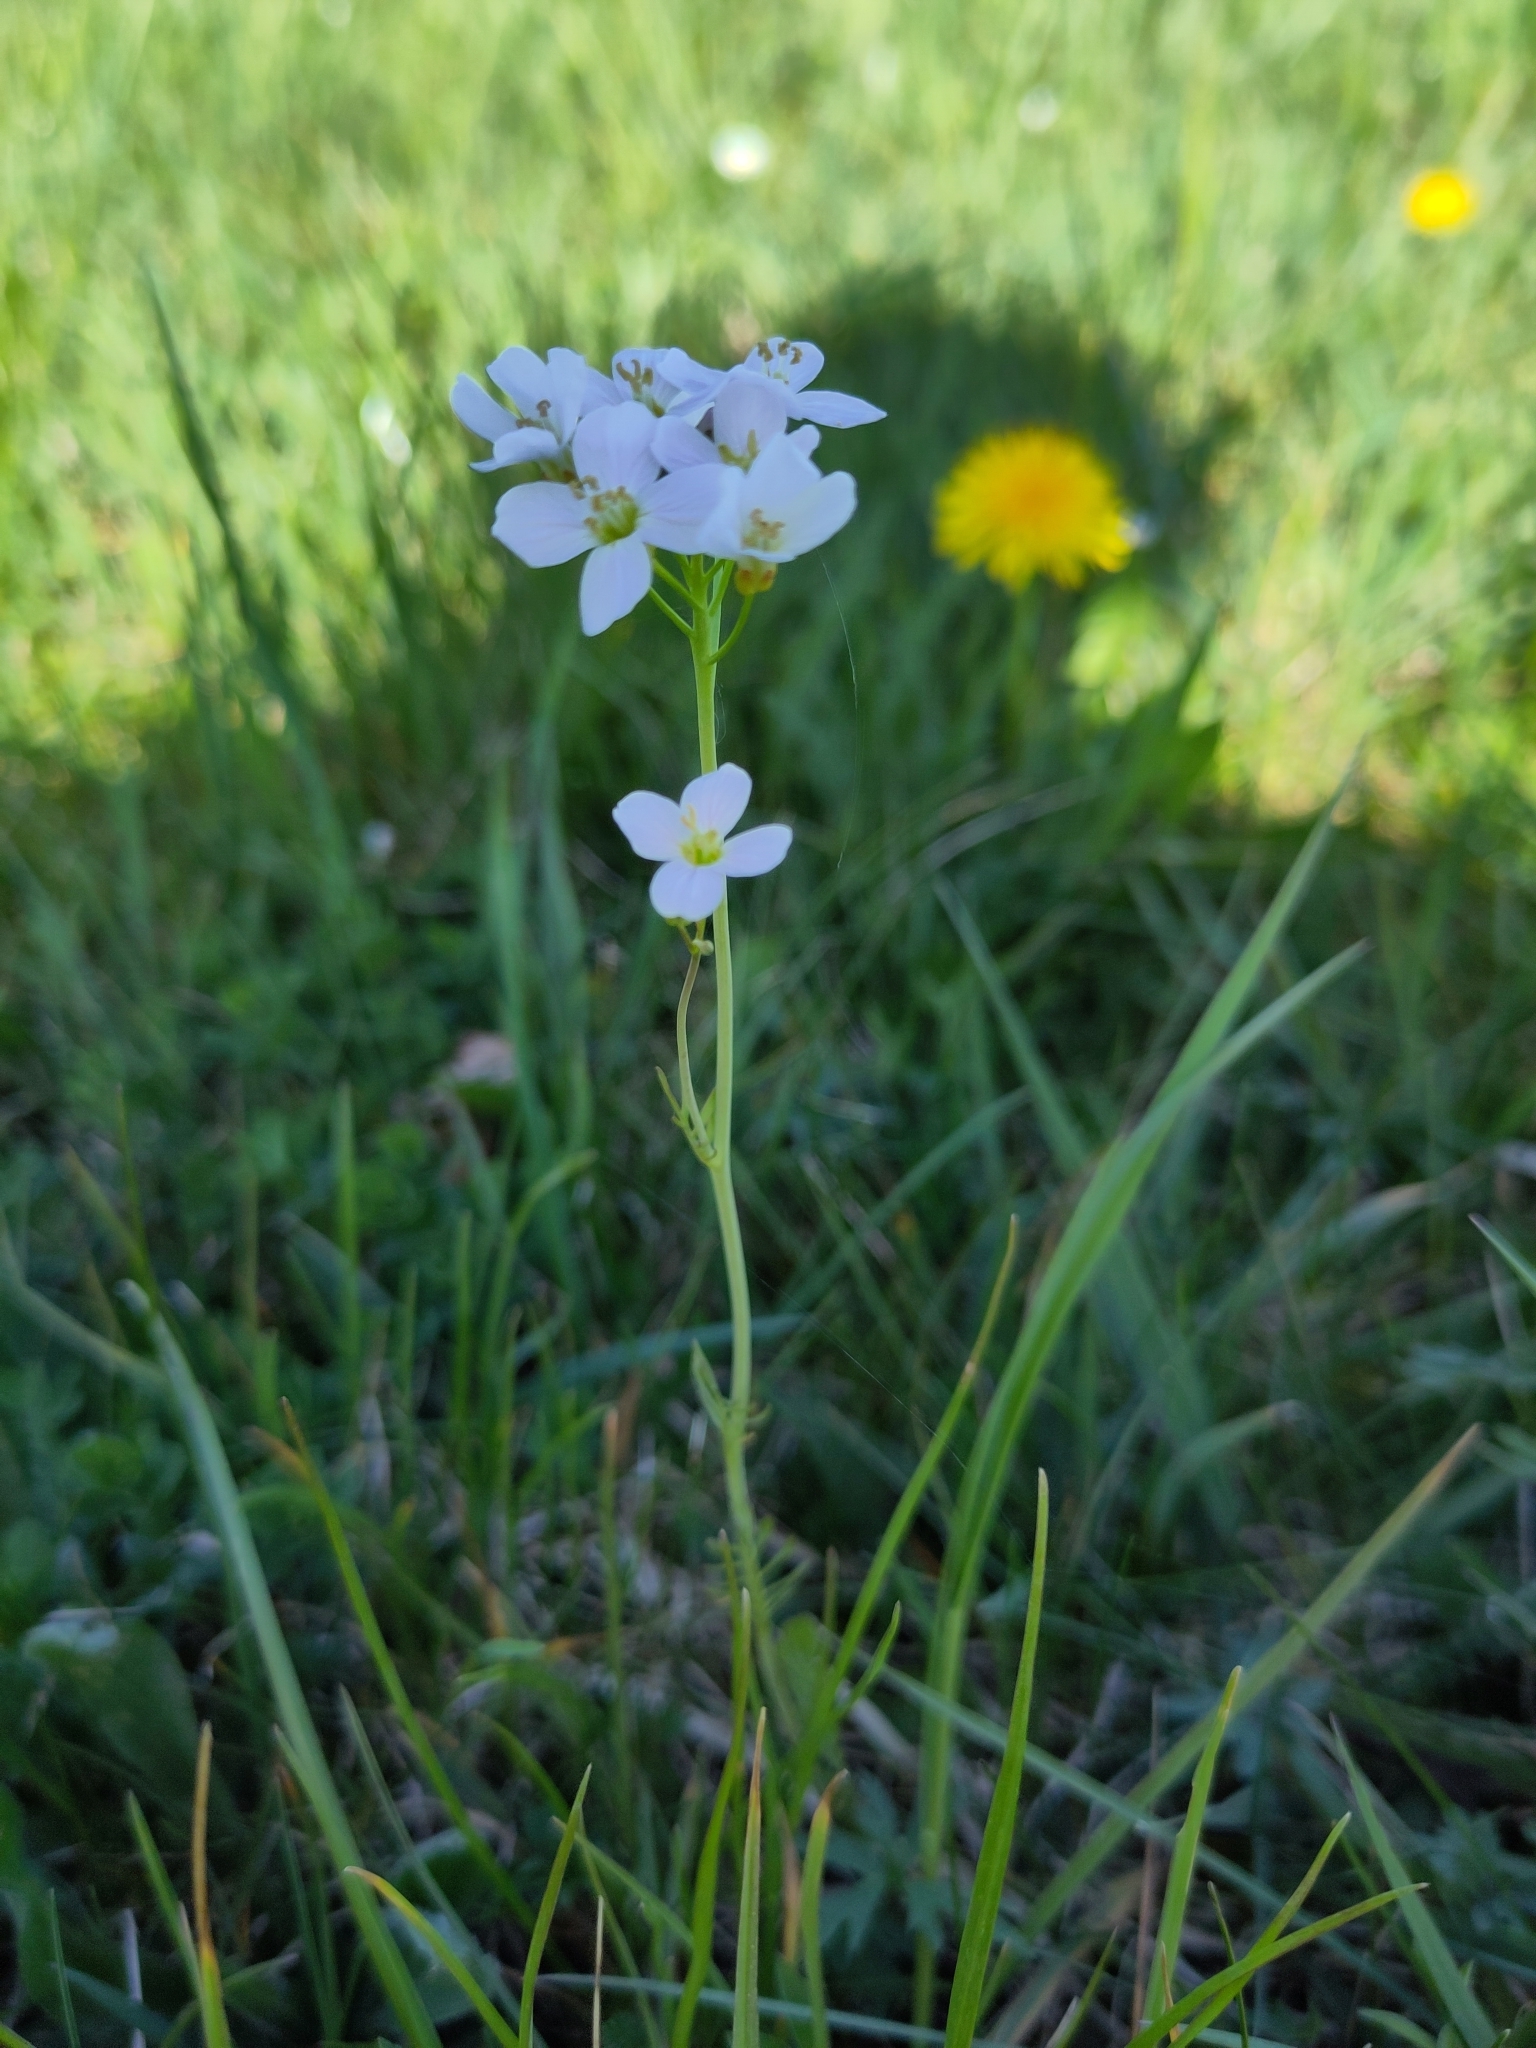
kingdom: Plantae
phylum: Tracheophyta
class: Magnoliopsida
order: Brassicales
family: Brassicaceae
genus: Cardamine
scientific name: Cardamine pratensis
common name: Cuckoo flower
